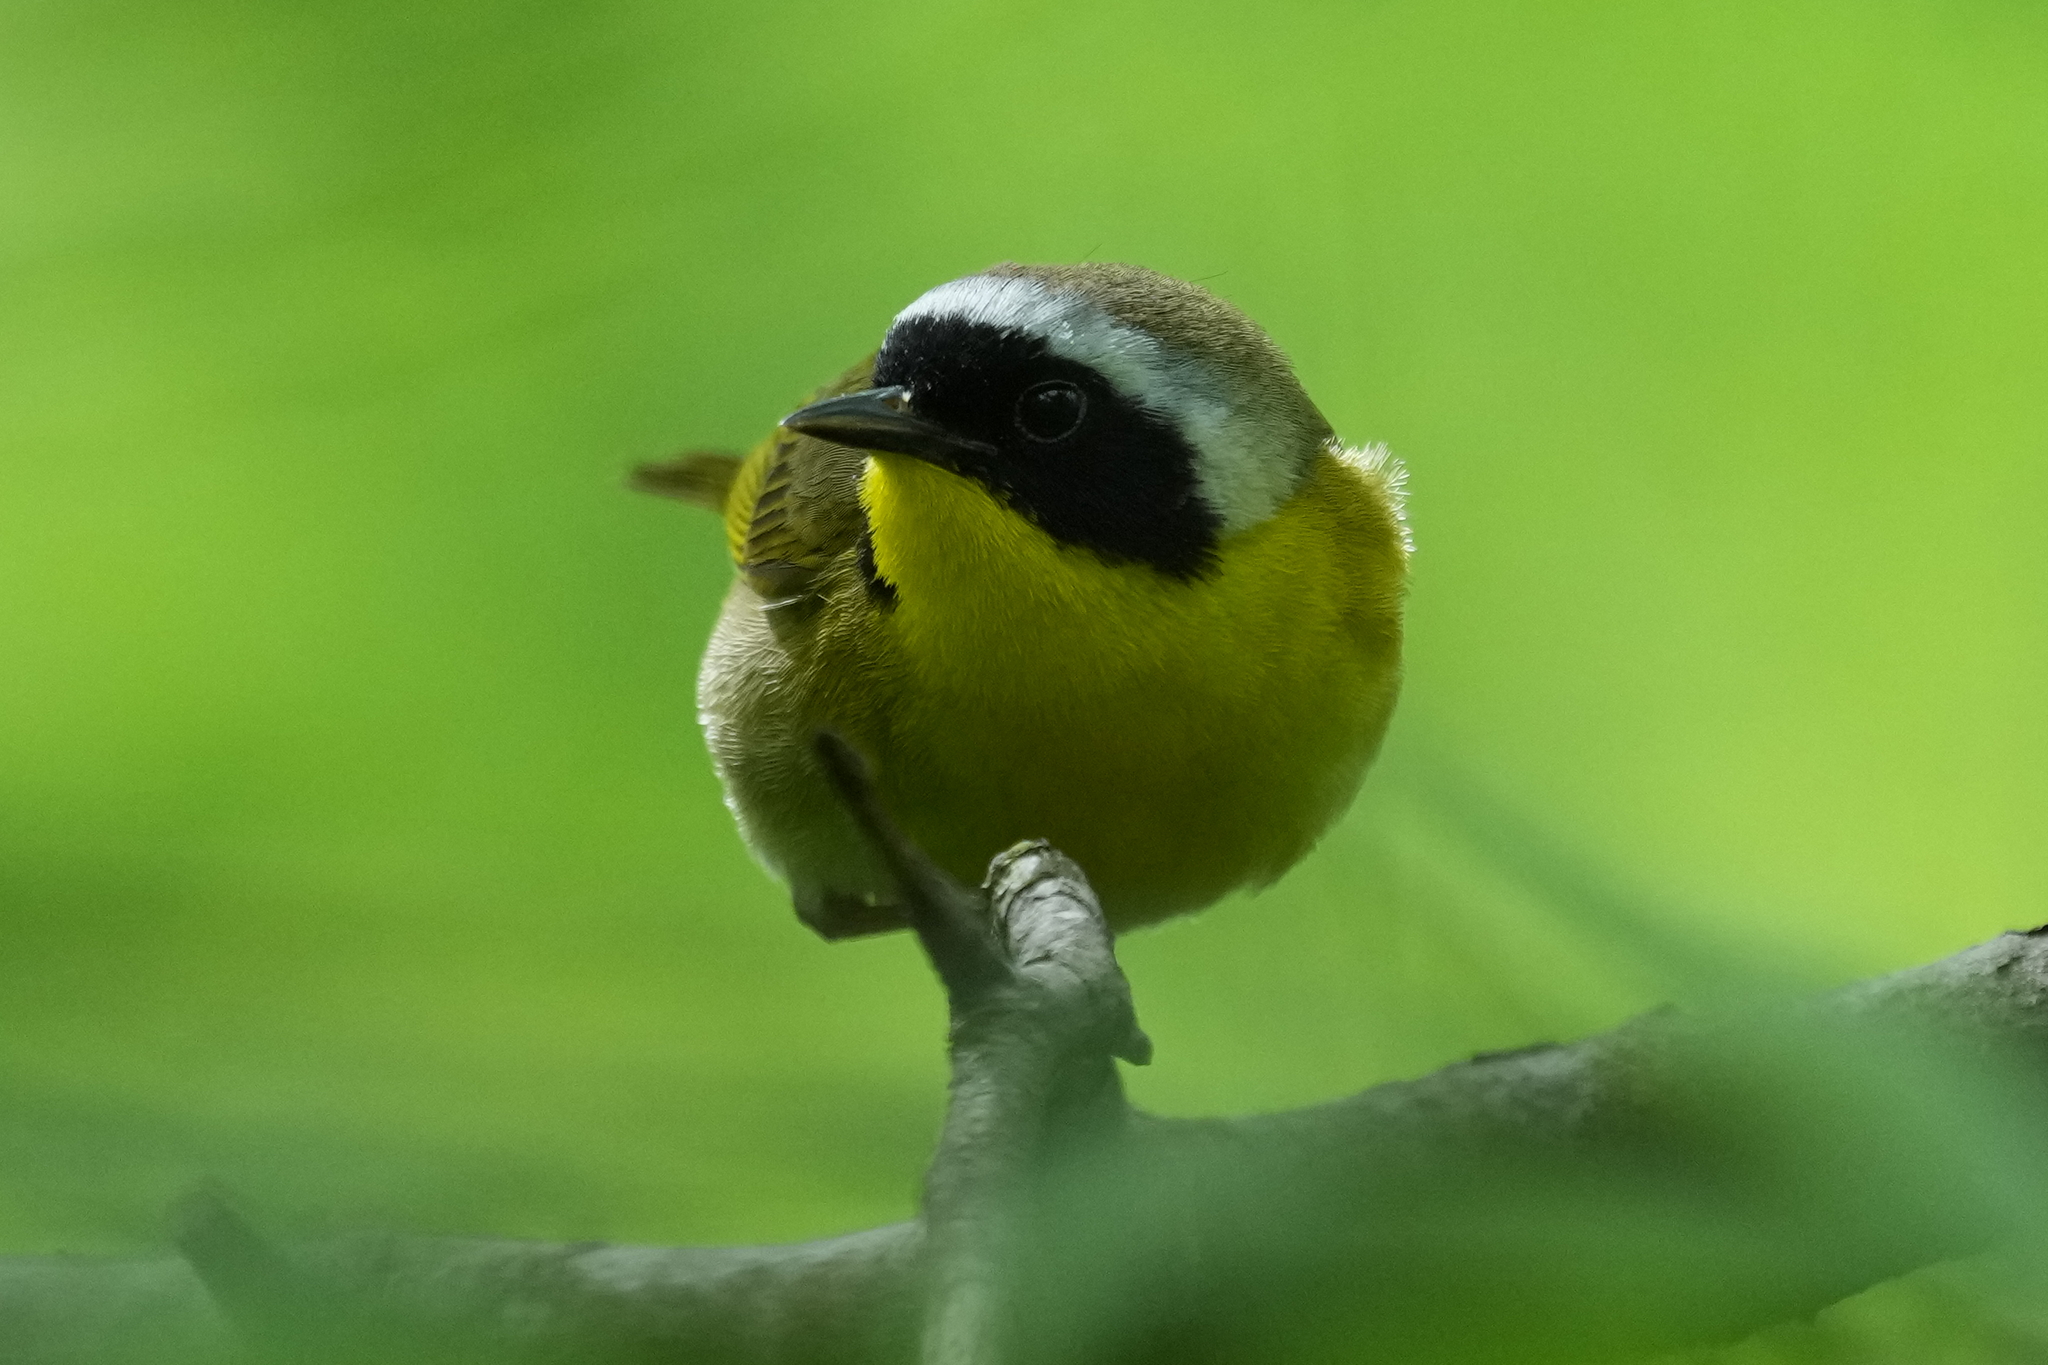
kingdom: Animalia
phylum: Chordata
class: Aves
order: Passeriformes
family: Parulidae
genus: Geothlypis
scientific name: Geothlypis trichas
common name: Common yellowthroat
